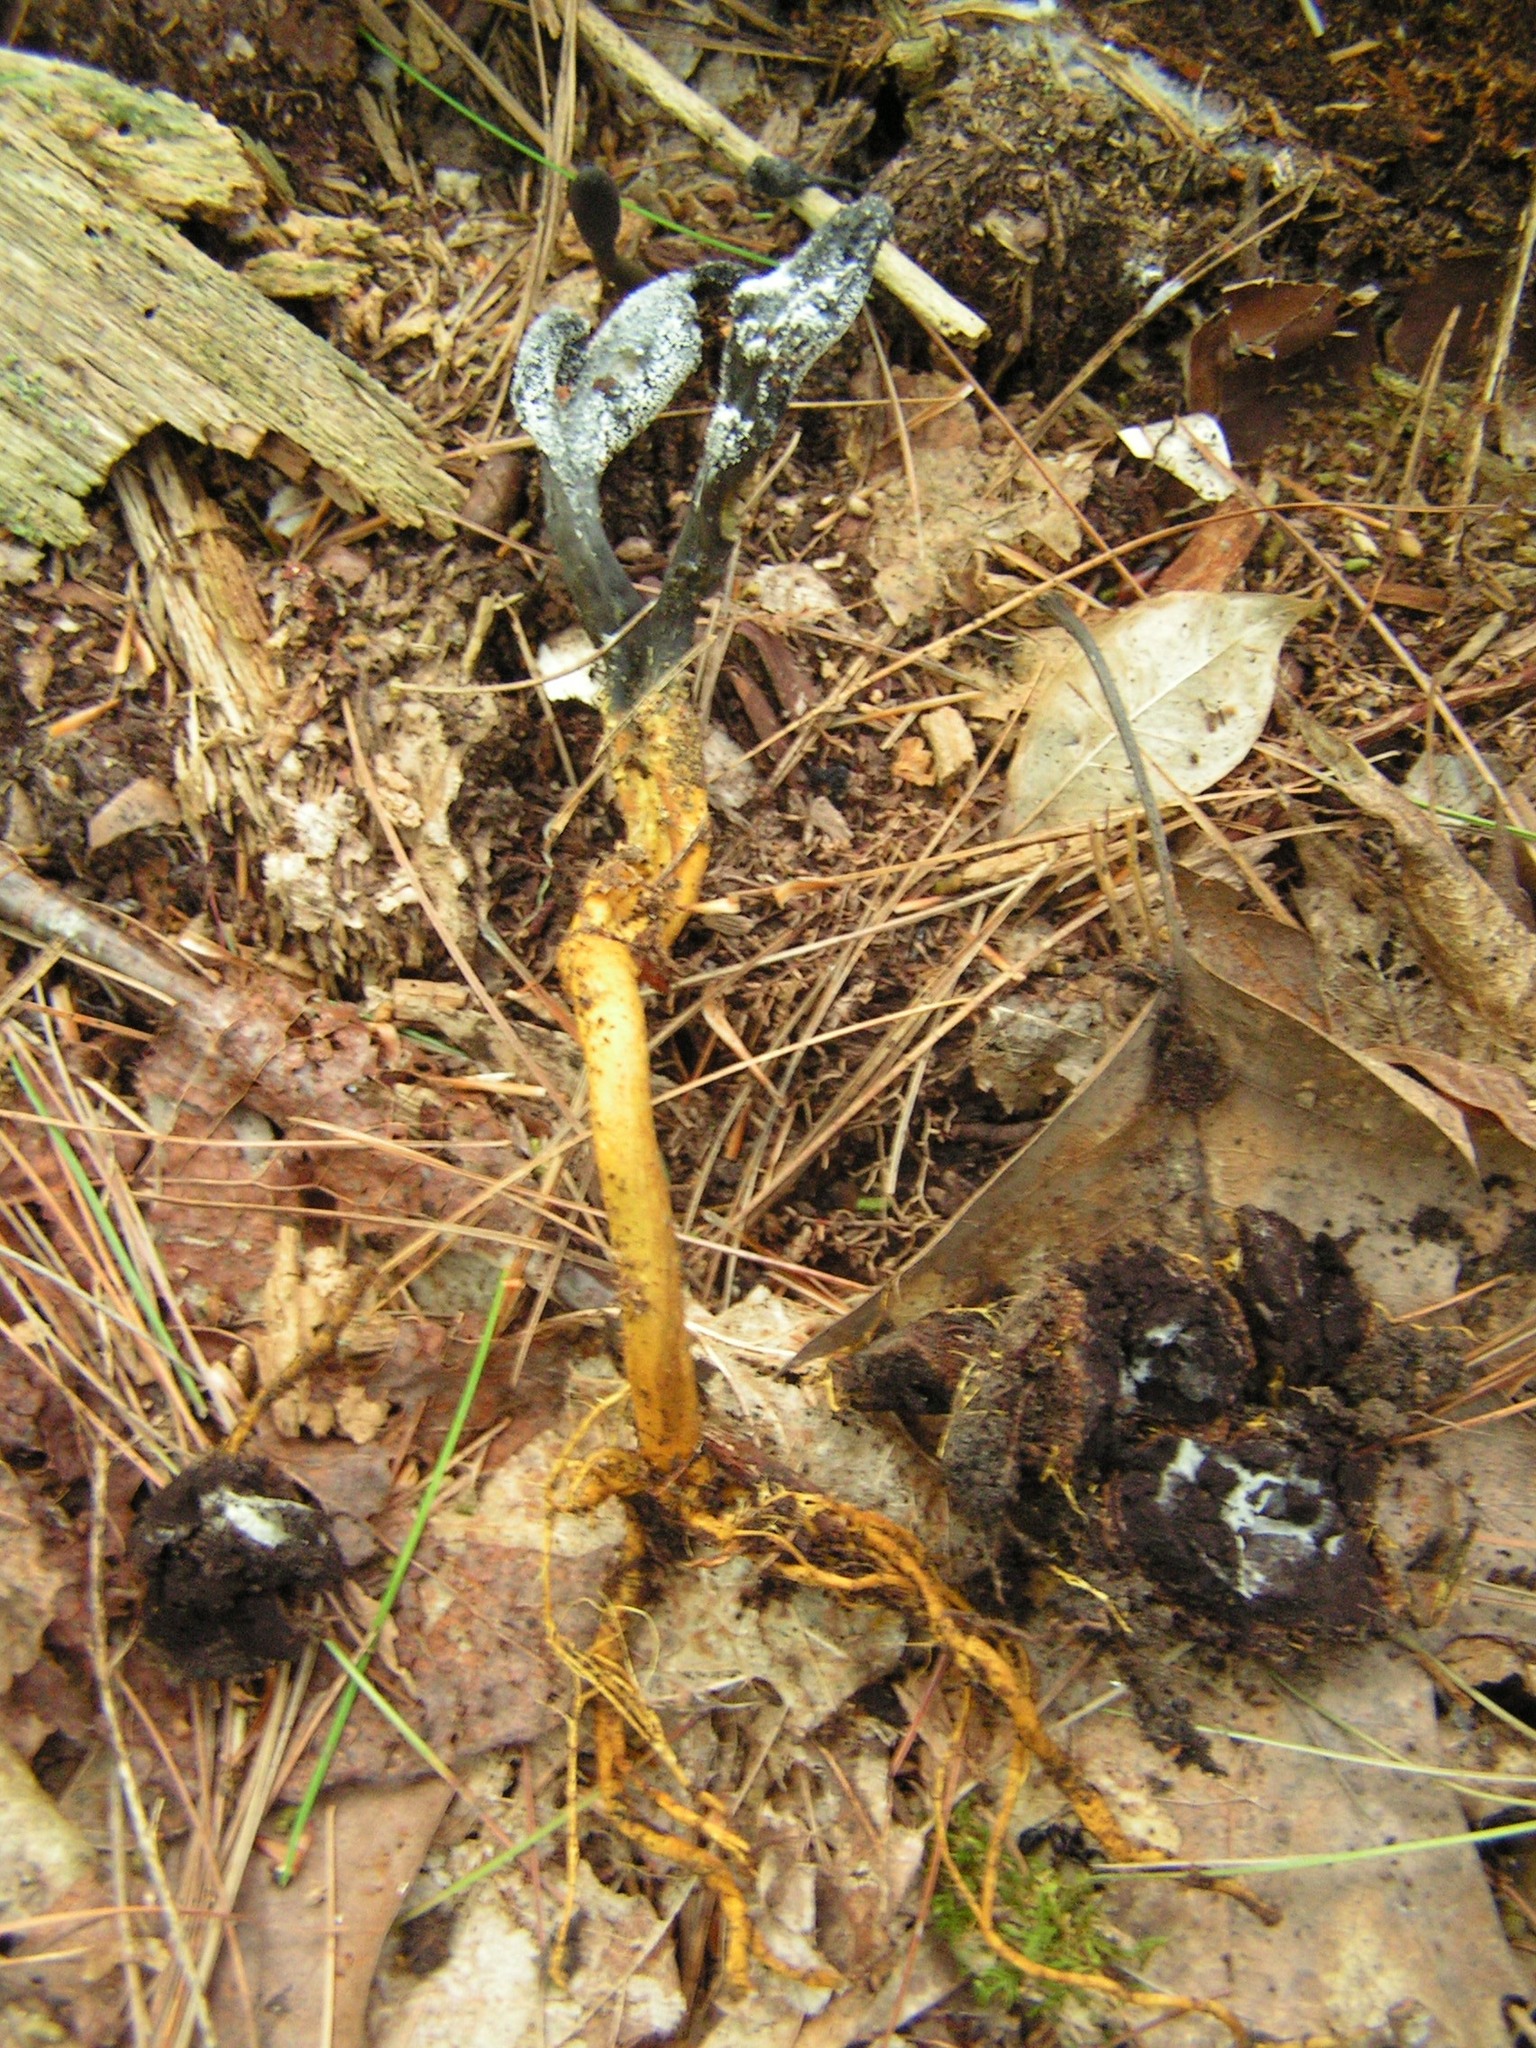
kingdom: Fungi
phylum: Ascomycota
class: Sordariomycetes
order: Hypocreales
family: Ophiocordycipitaceae
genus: Tolypocladium
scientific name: Tolypocladium ophioglossoides
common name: Snaketongue truffleclub
